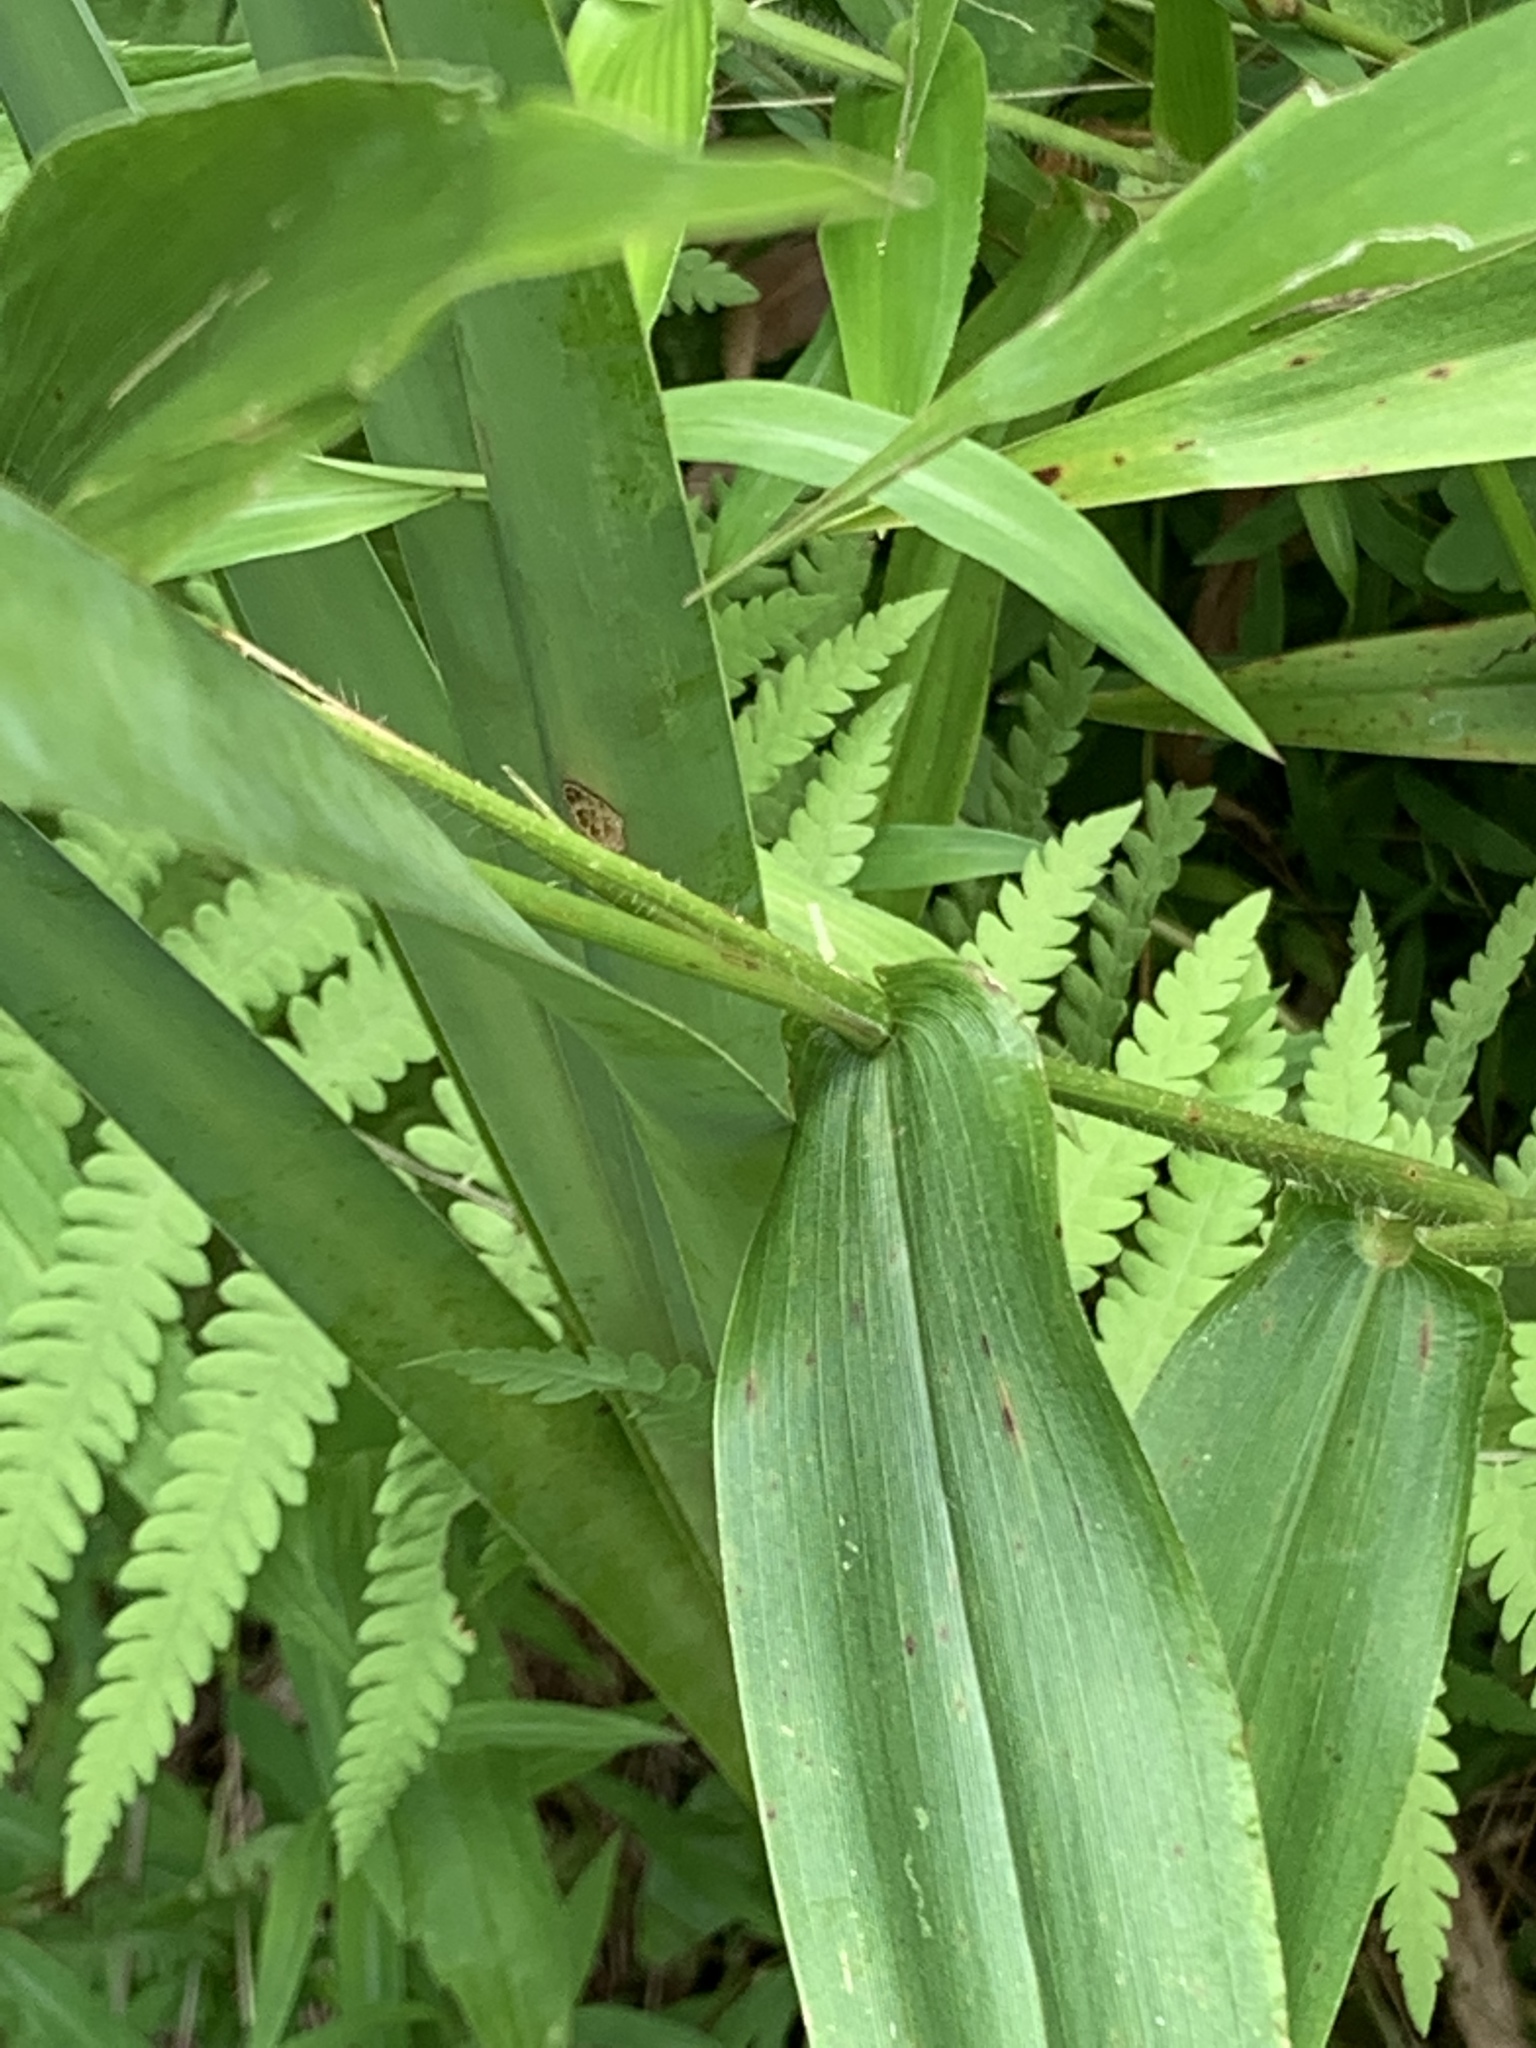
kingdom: Plantae
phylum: Tracheophyta
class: Liliopsida
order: Poales
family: Poaceae
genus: Dichanthelium
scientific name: Dichanthelium clandestinum
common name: Deer-tongue grass
